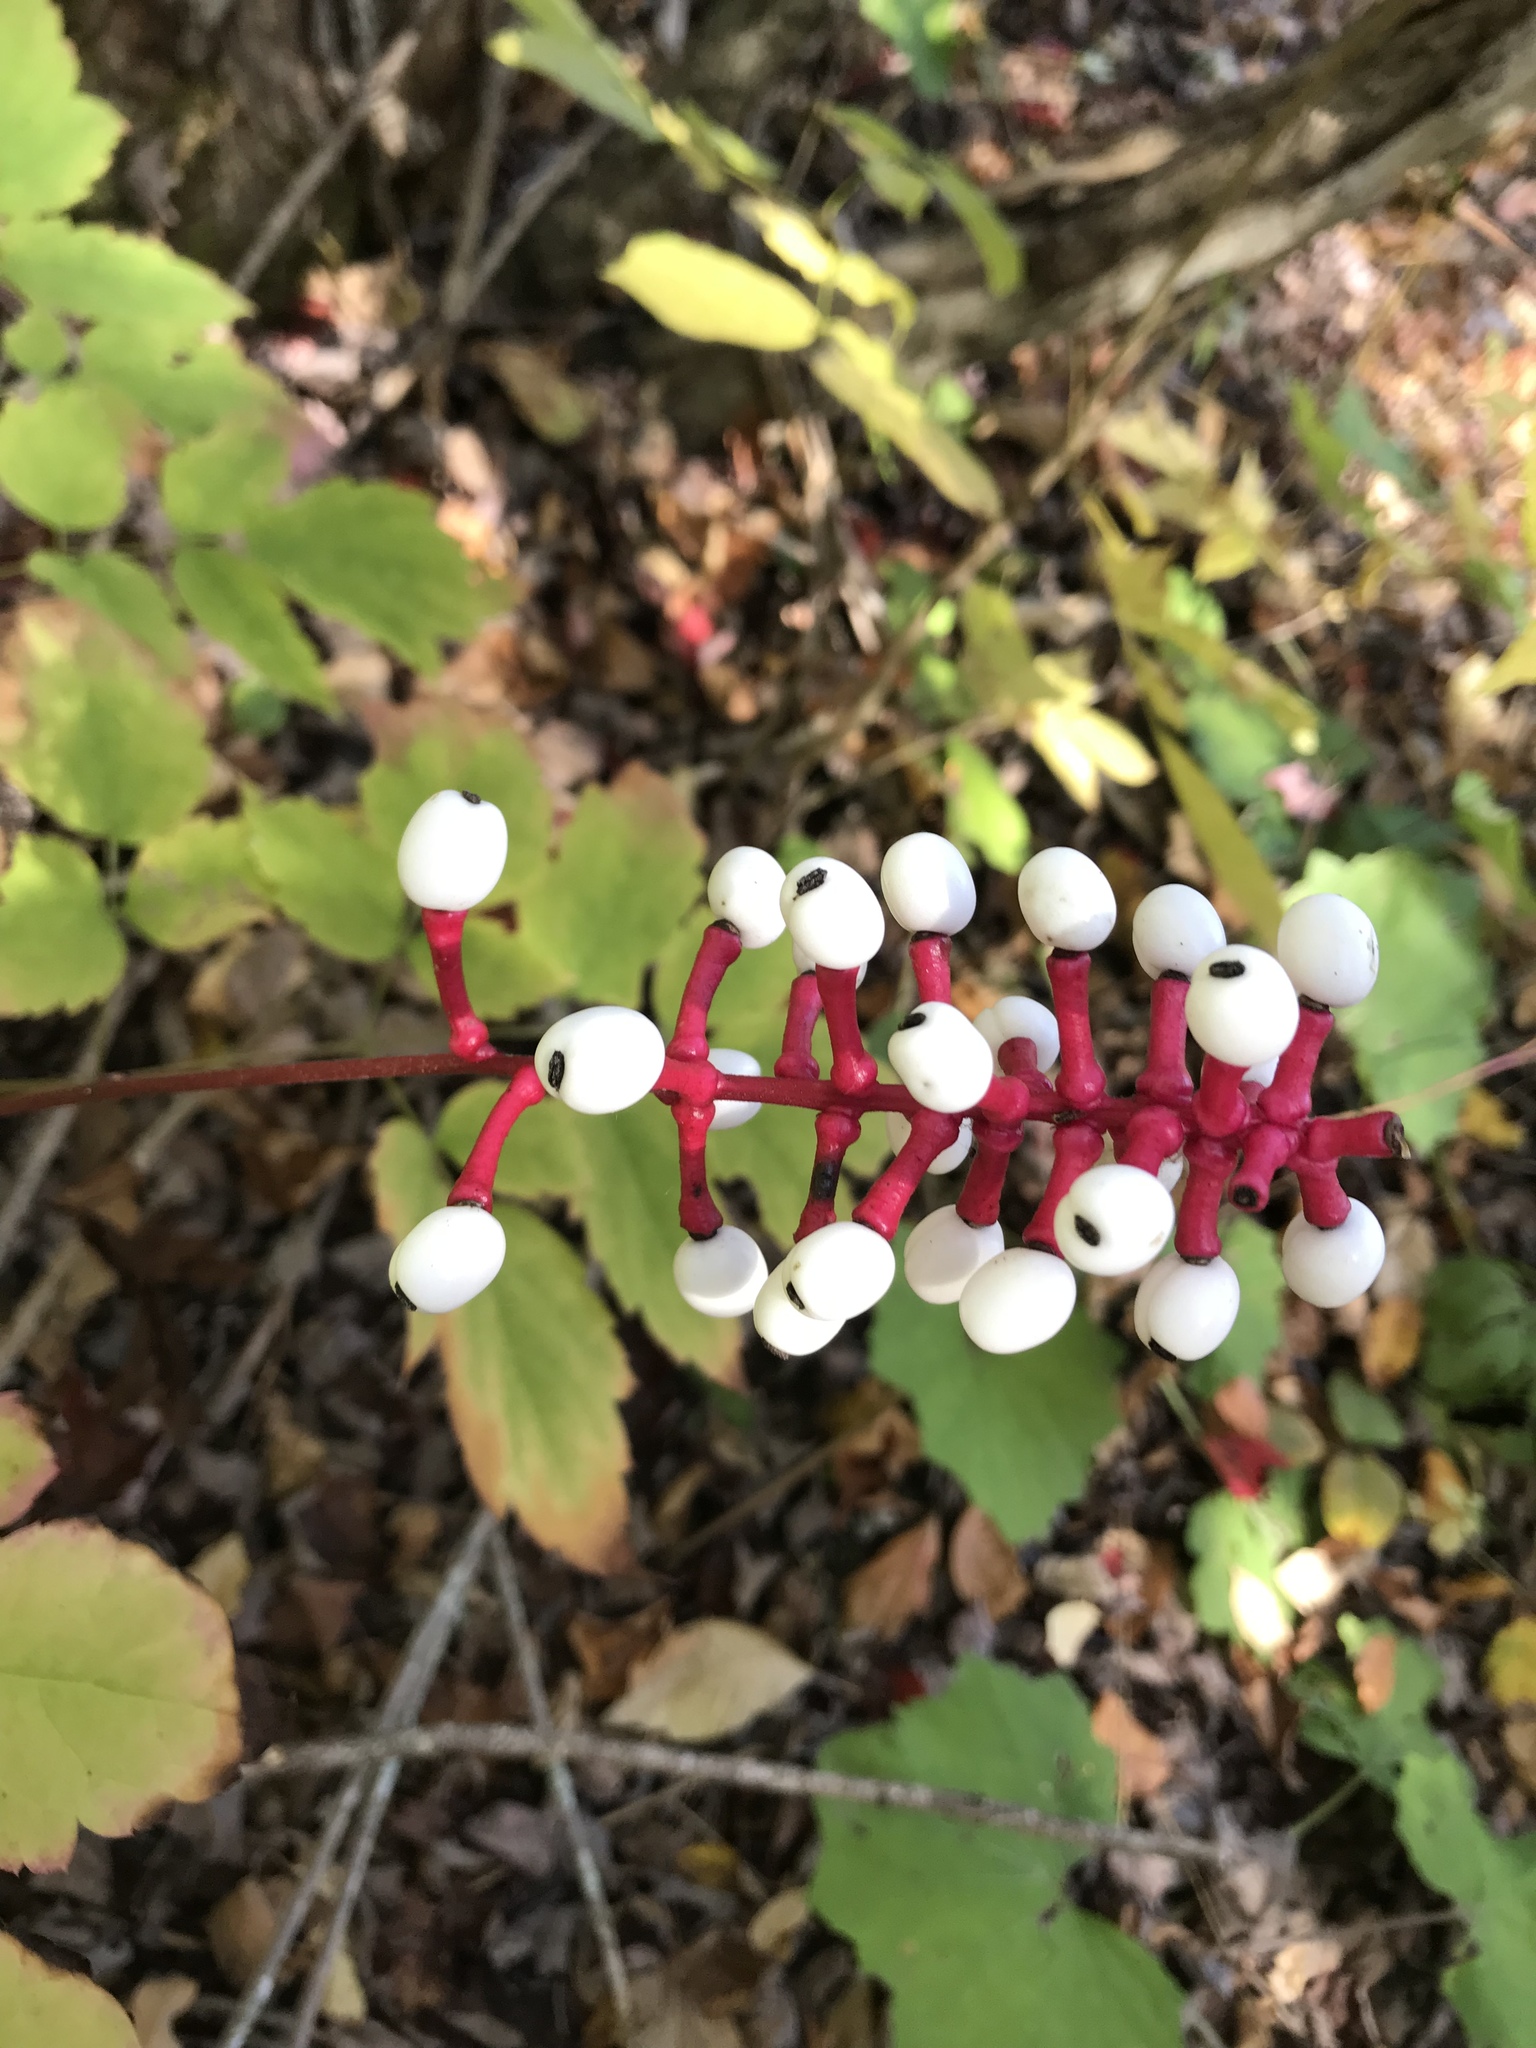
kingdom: Plantae
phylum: Tracheophyta
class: Magnoliopsida
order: Ranunculales
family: Ranunculaceae
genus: Actaea
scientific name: Actaea pachypoda
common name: Doll's-eyes
